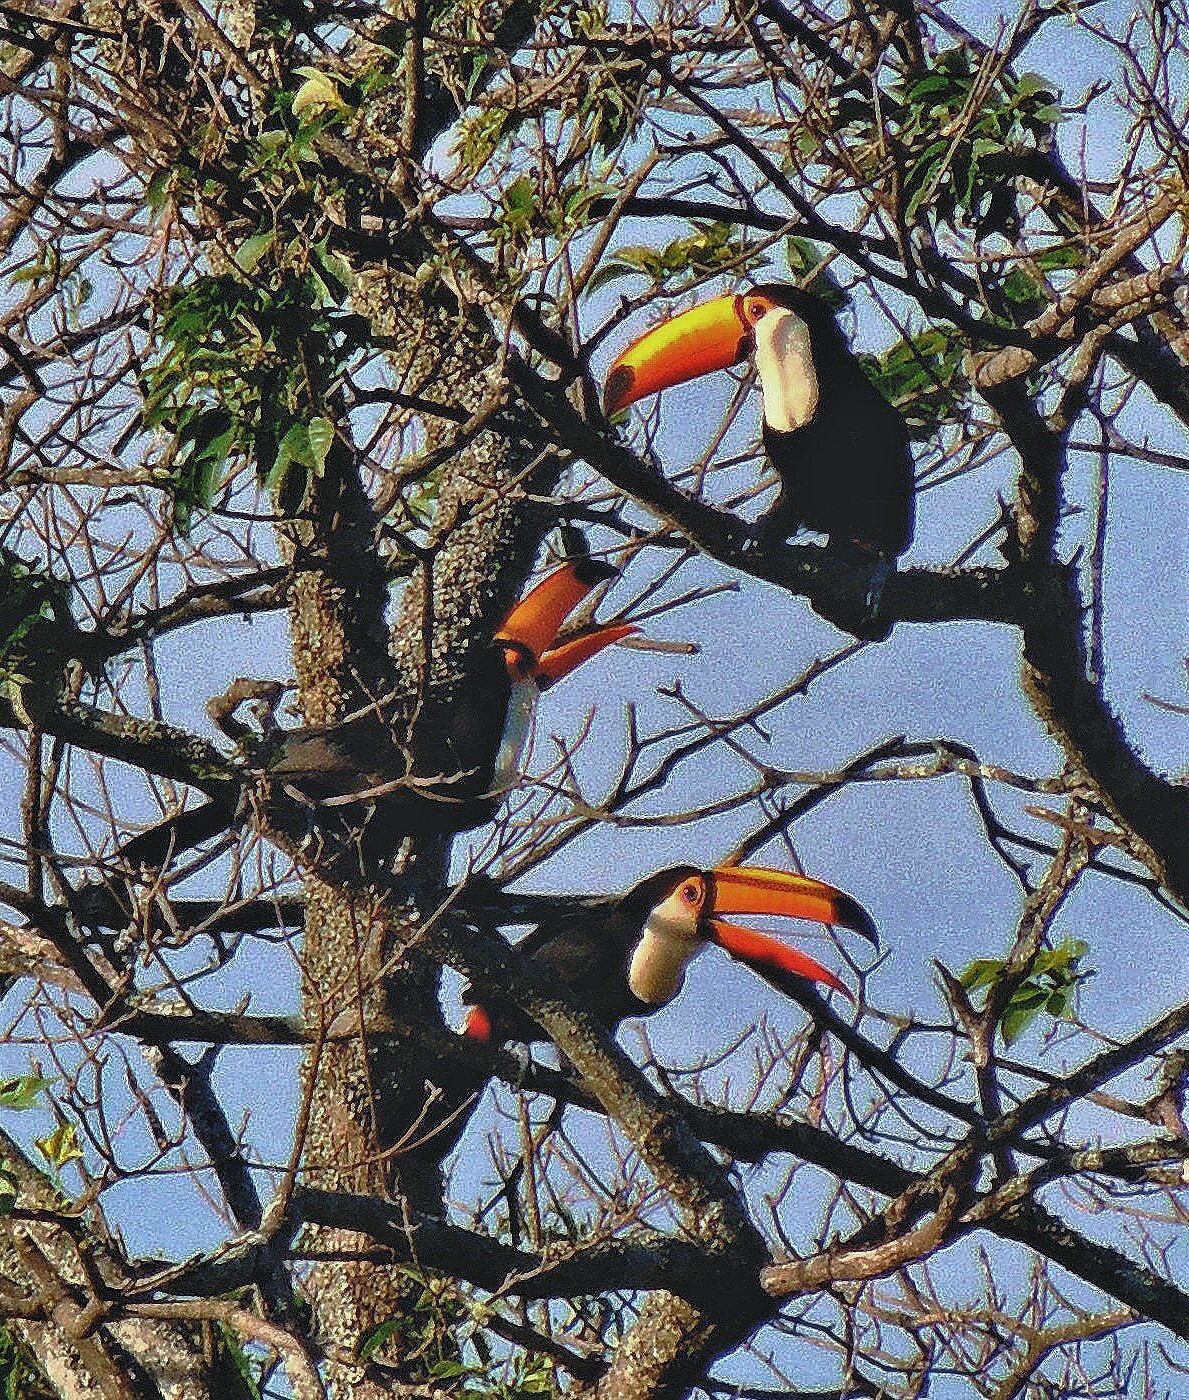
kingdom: Animalia
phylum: Chordata
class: Aves
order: Piciformes
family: Ramphastidae
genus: Ramphastos
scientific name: Ramphastos toco
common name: Toco toucan
